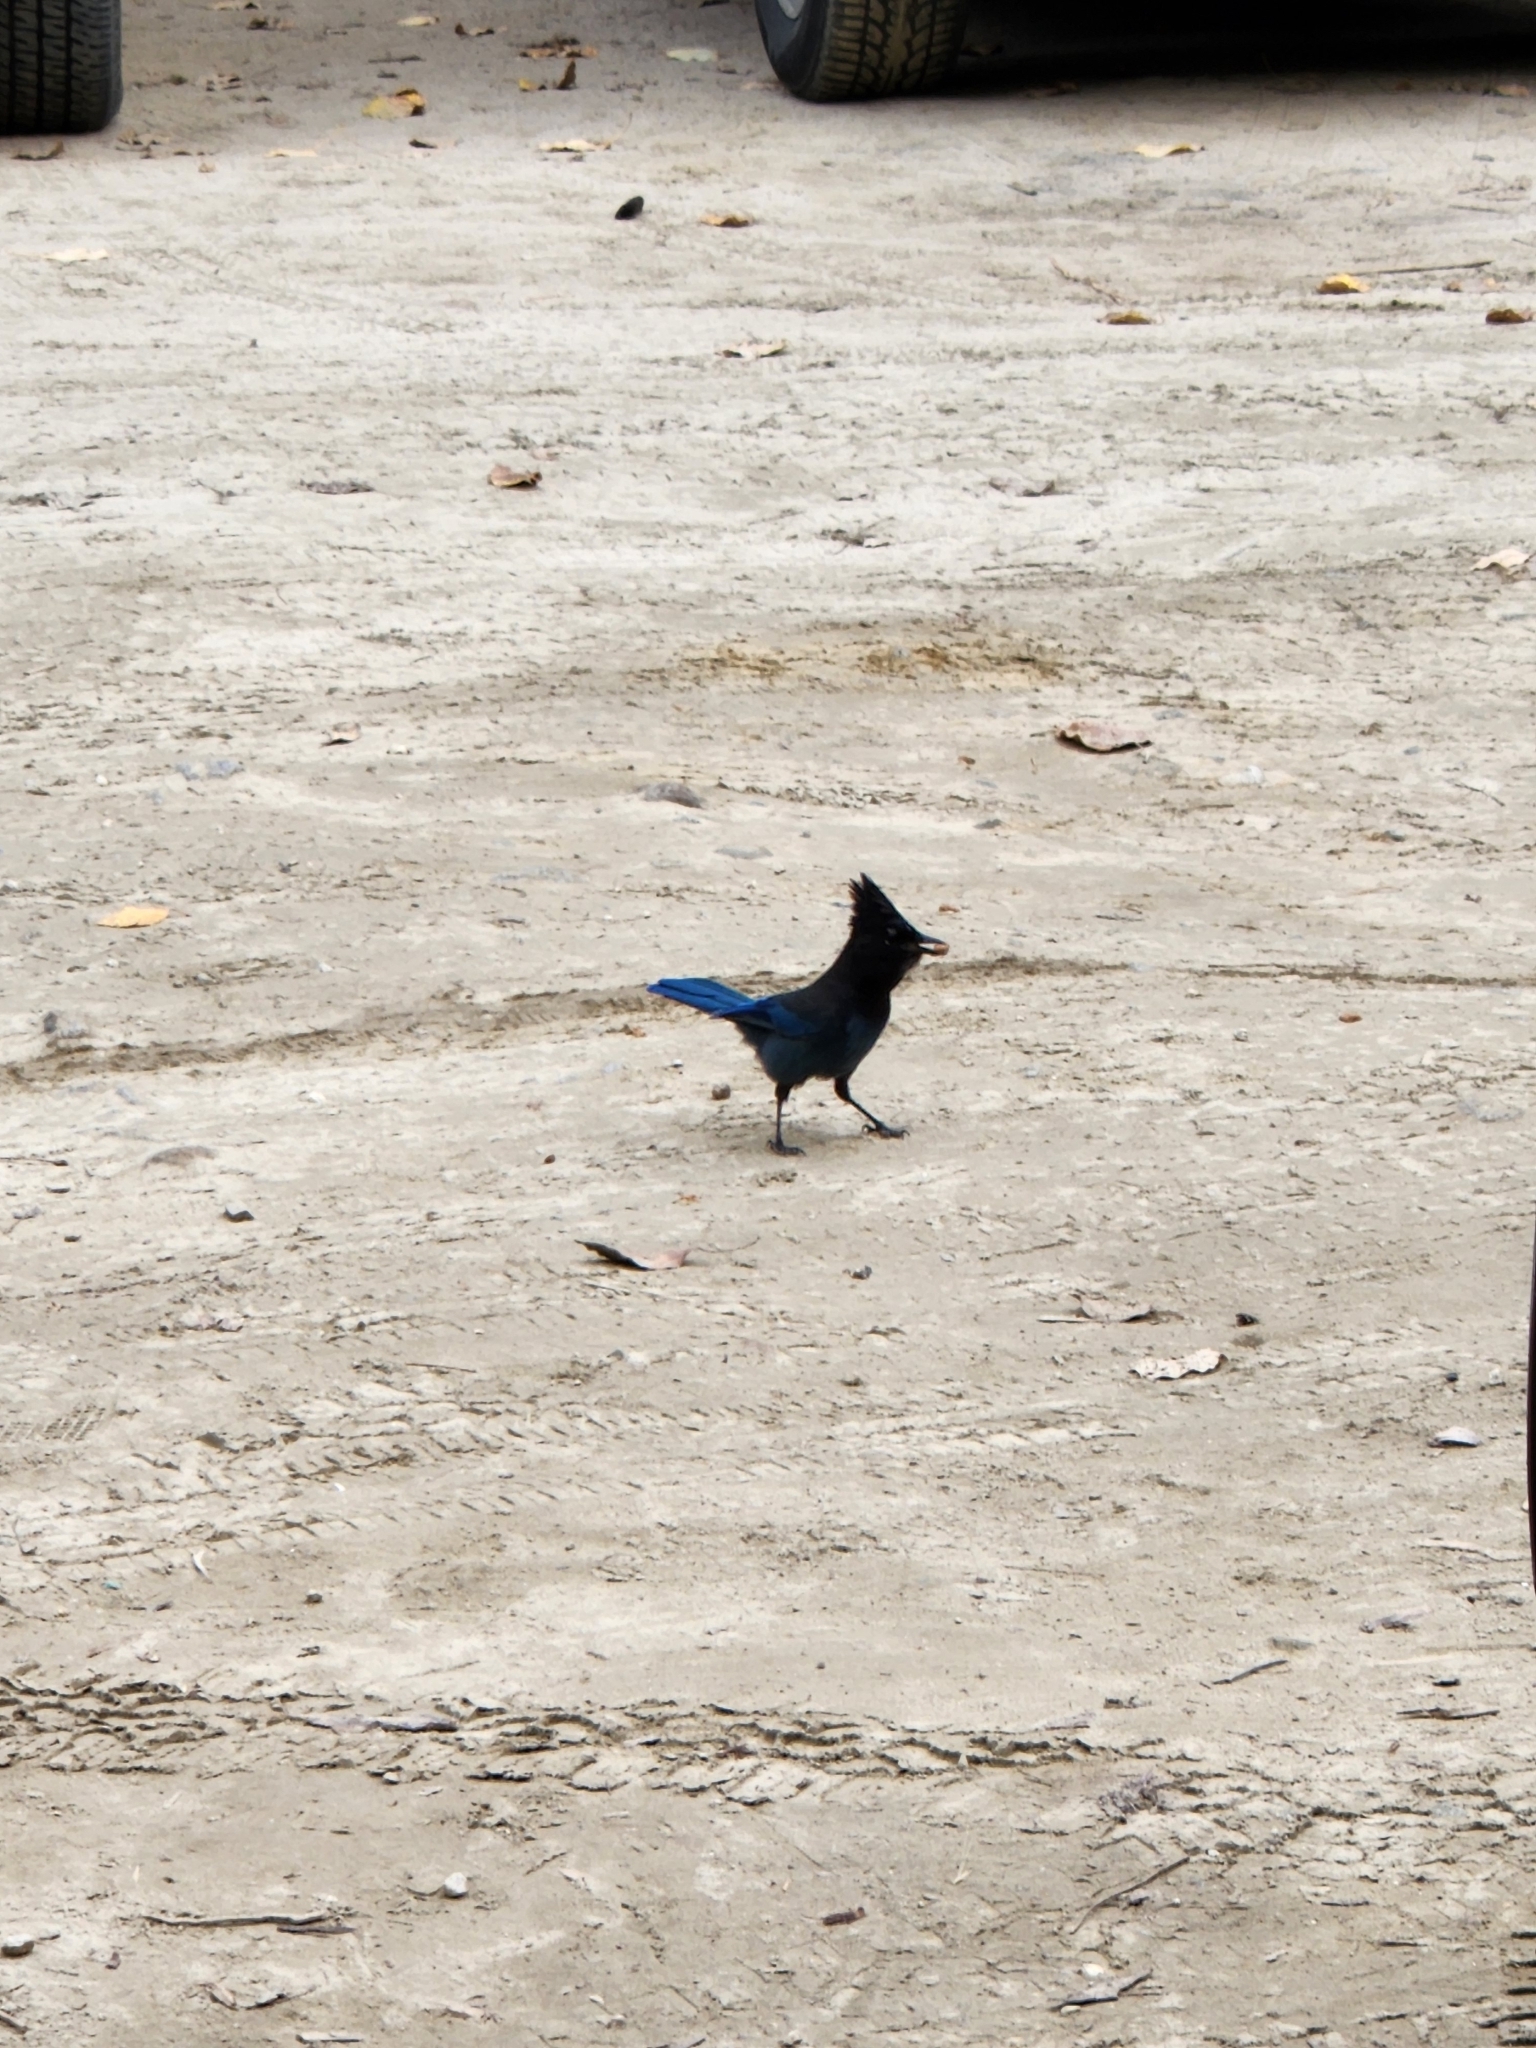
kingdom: Animalia
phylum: Chordata
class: Aves
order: Passeriformes
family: Corvidae
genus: Cyanocitta
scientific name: Cyanocitta stelleri
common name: Steller's jay
